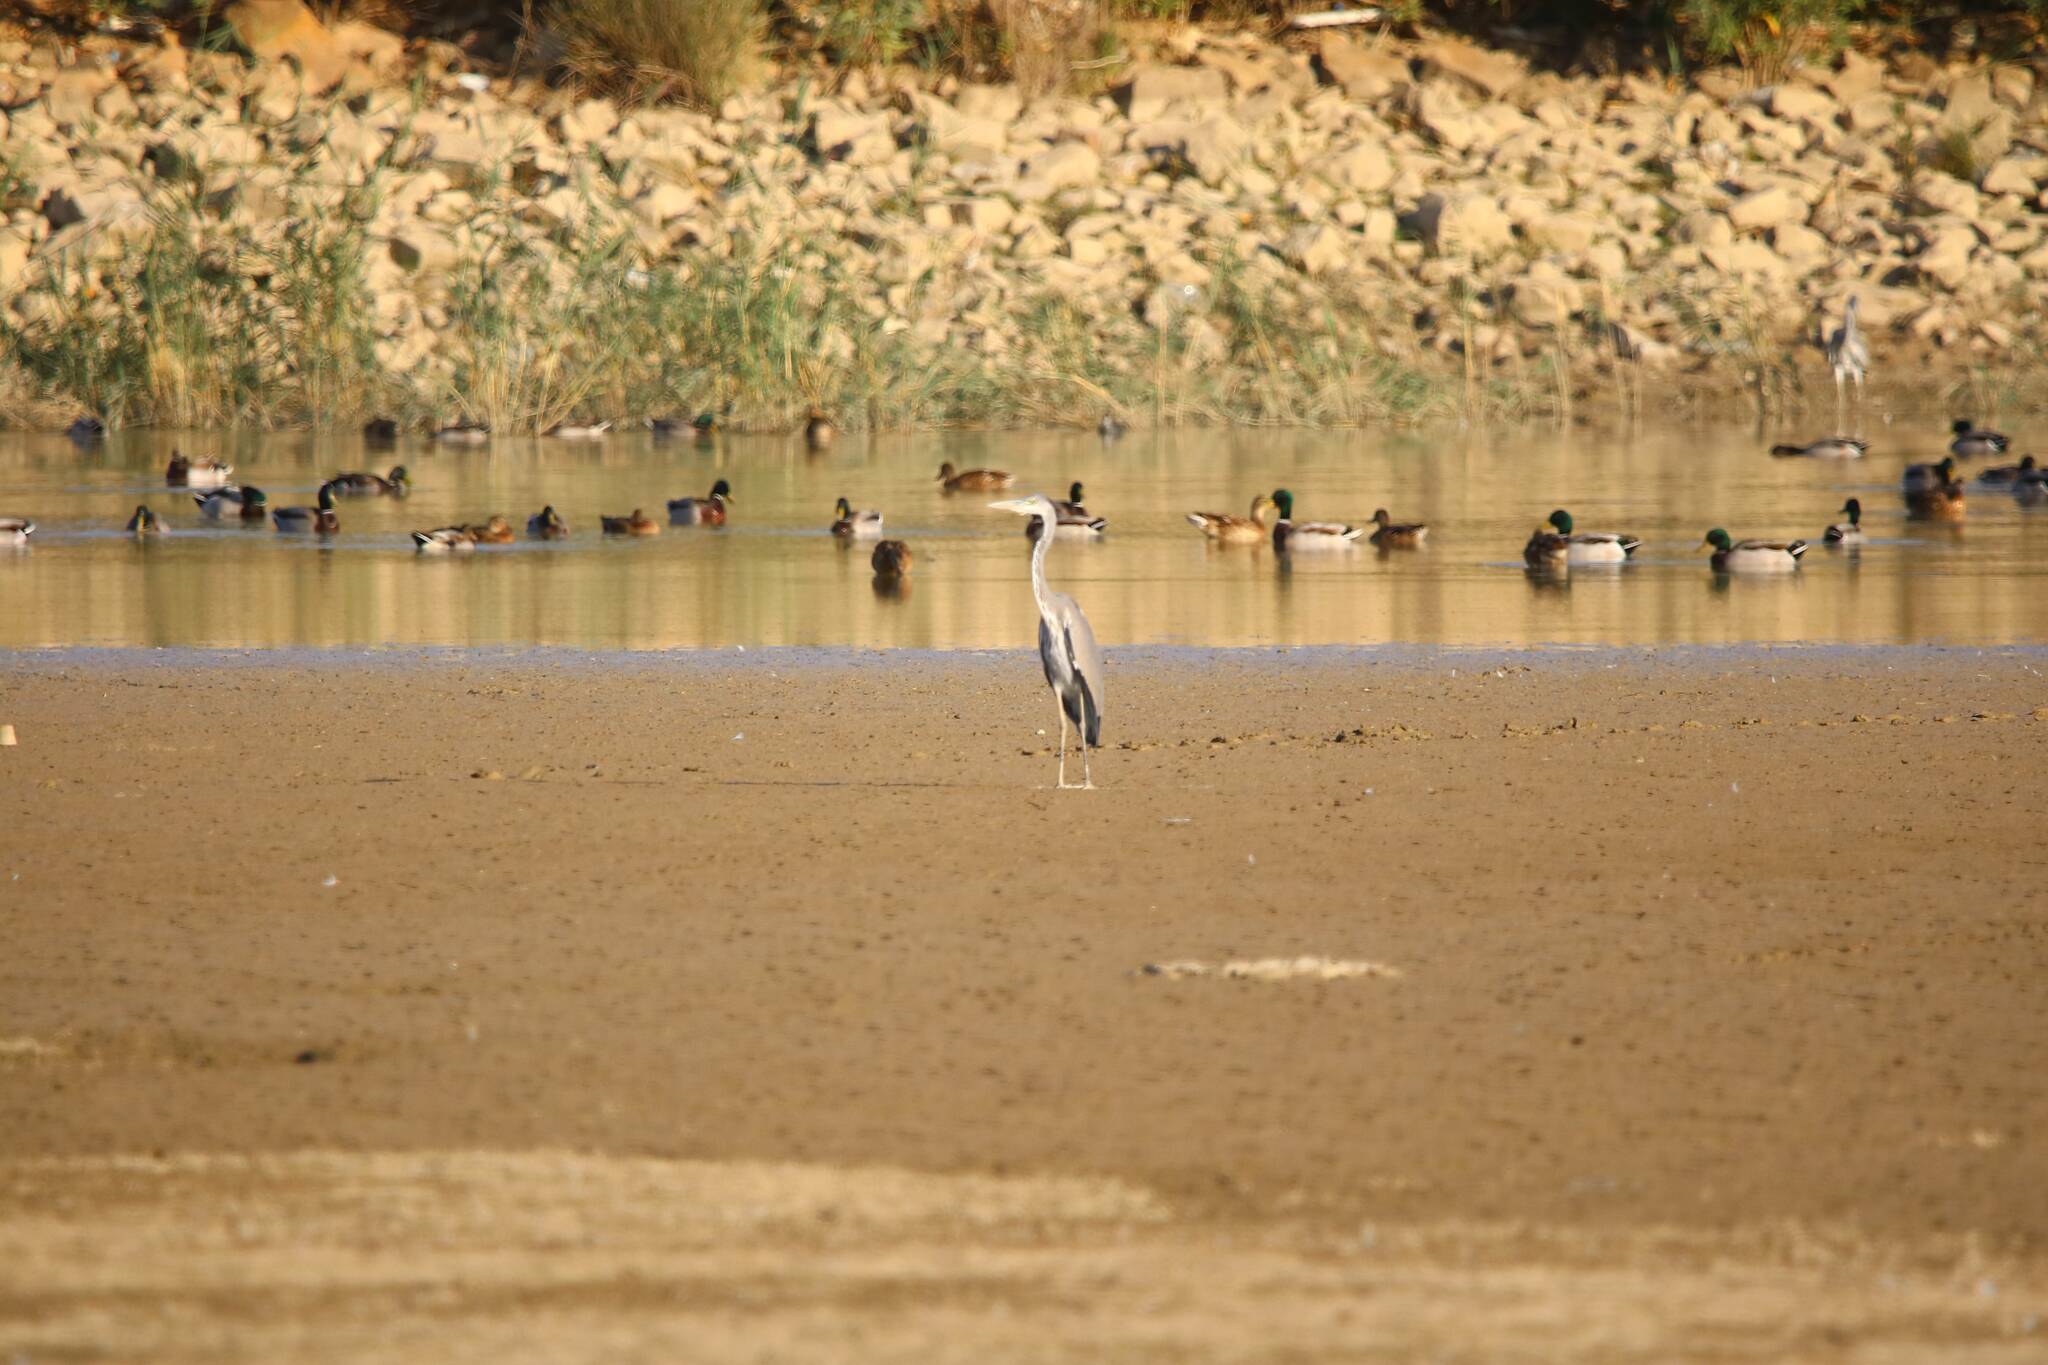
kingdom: Animalia
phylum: Chordata
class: Aves
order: Anseriformes
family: Anatidae
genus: Anas
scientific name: Anas platyrhynchos
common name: Mallard
